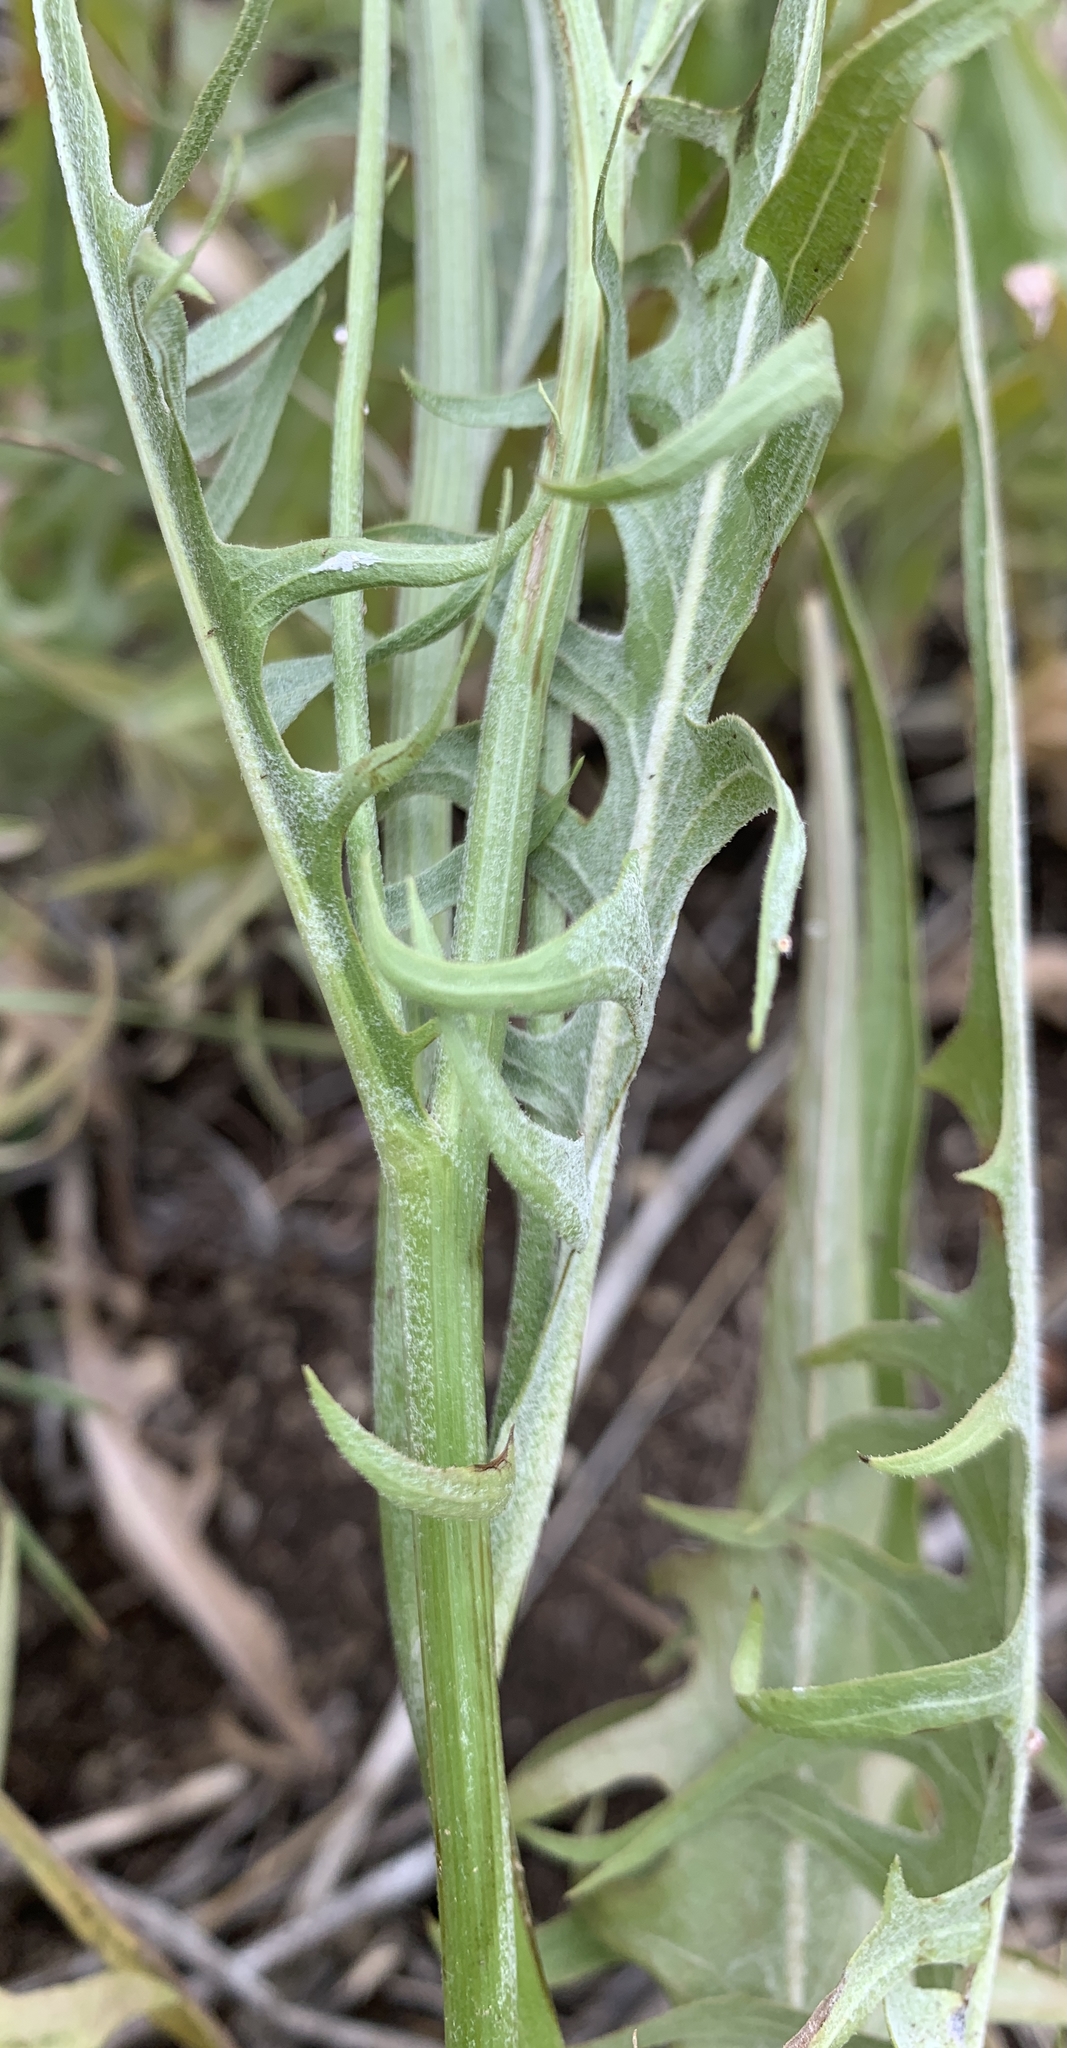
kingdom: Plantae
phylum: Tracheophyta
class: Magnoliopsida
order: Asterales
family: Asteraceae
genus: Crepis
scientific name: Crepis acuminata
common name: Longleaf hawk's-beard
